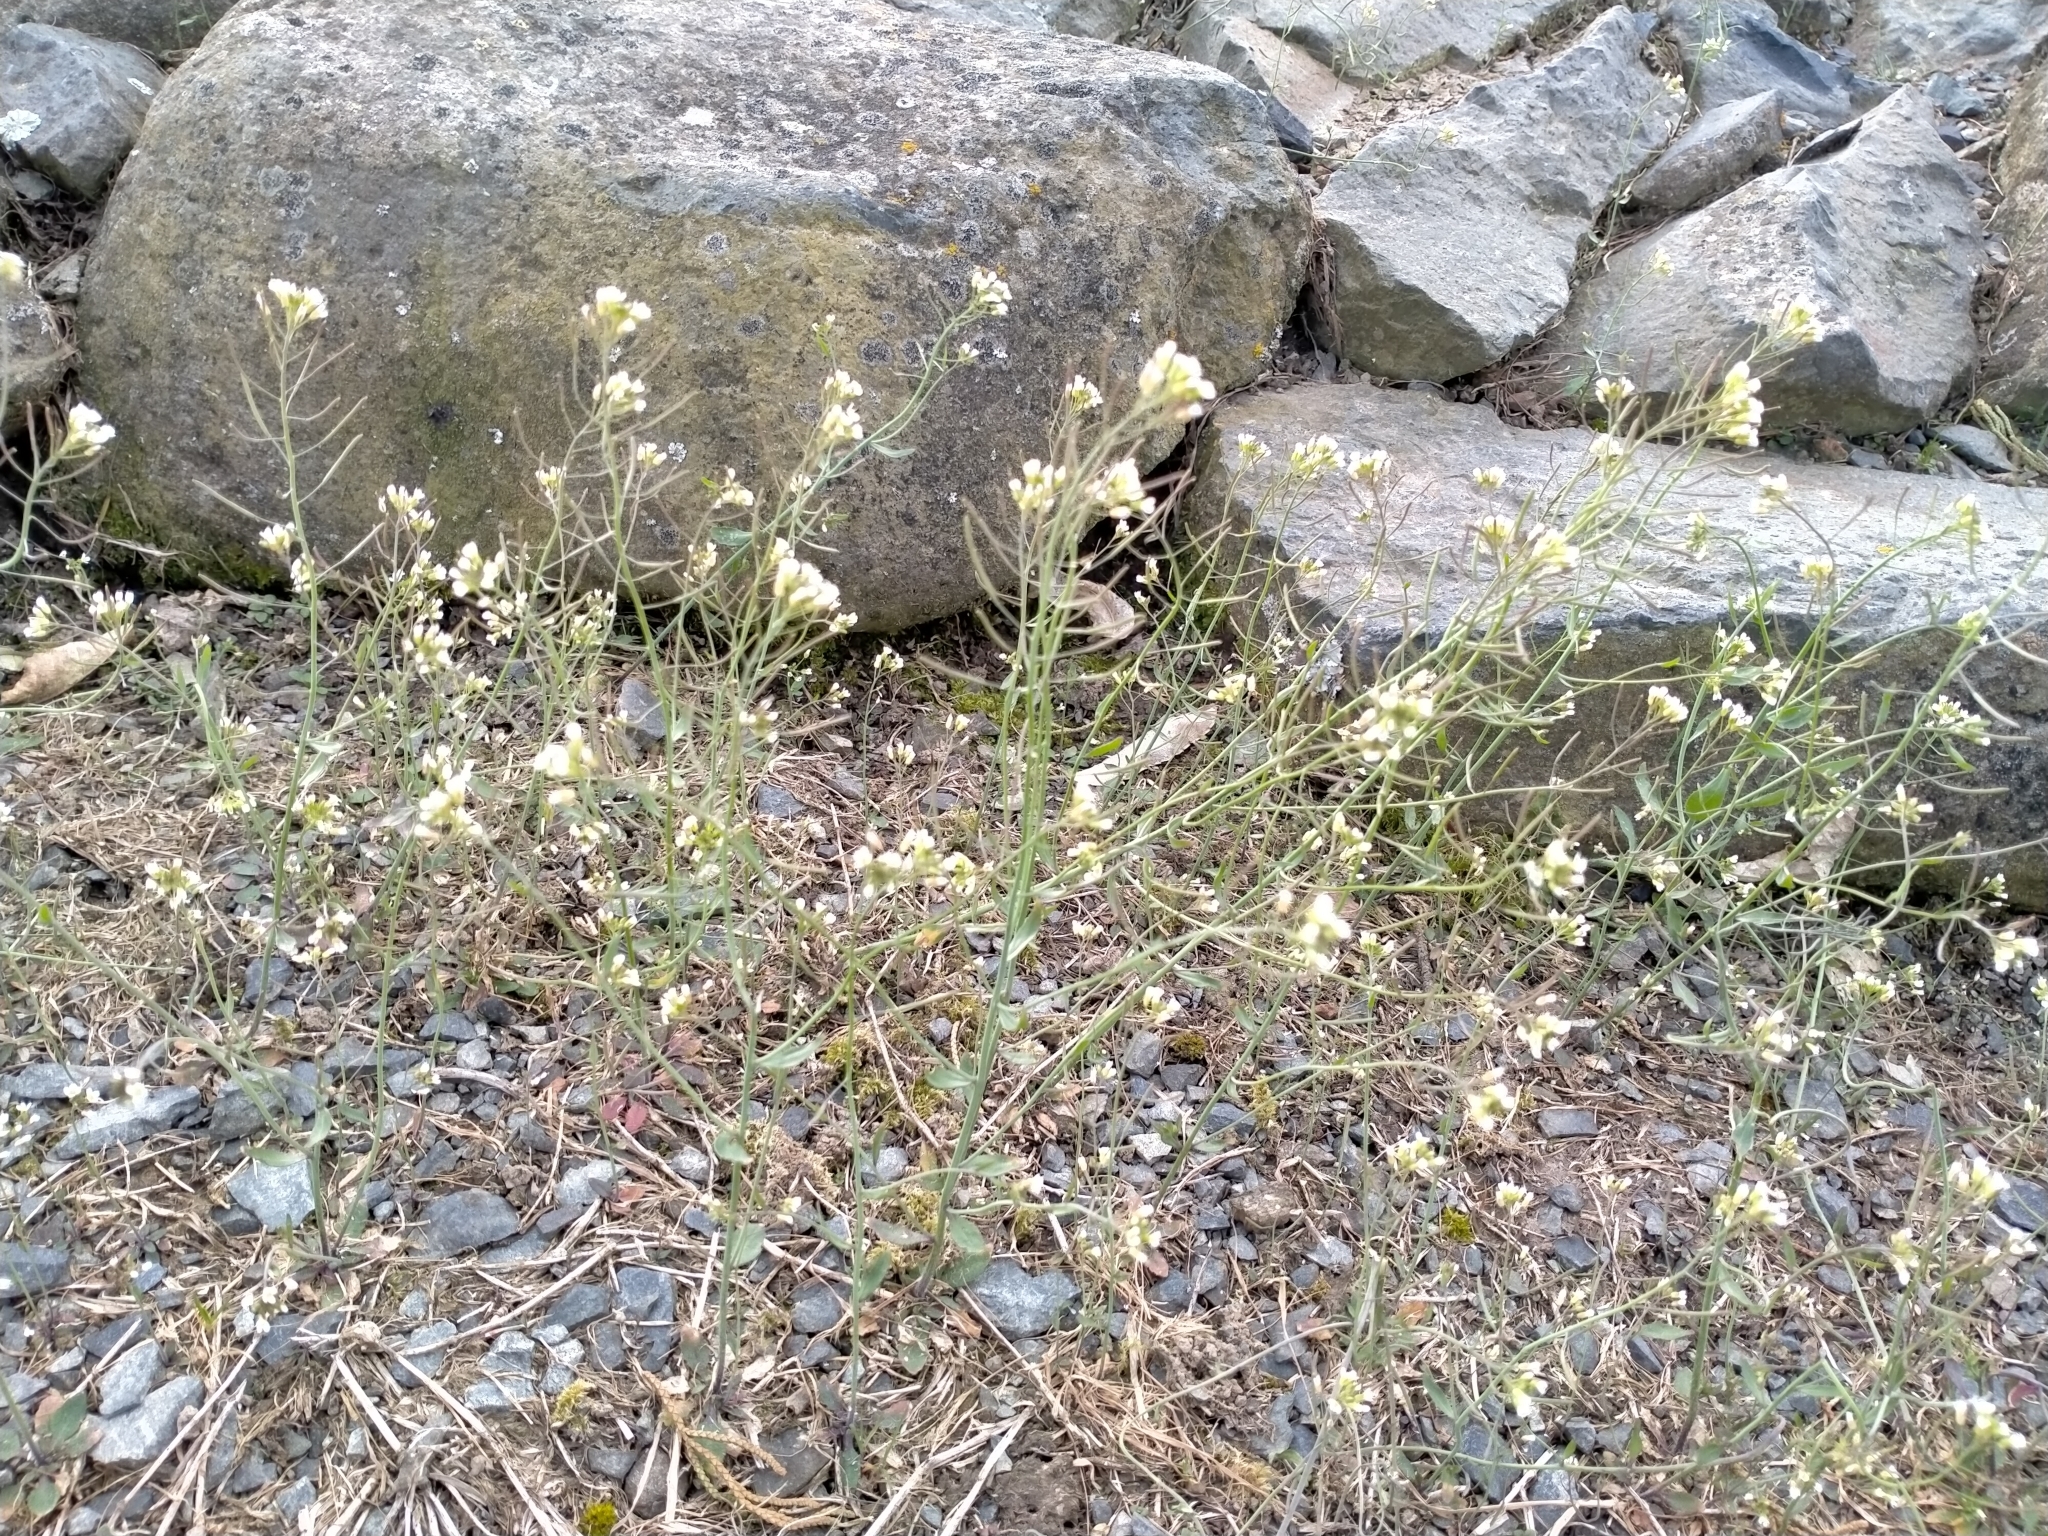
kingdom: Plantae
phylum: Tracheophyta
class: Magnoliopsida
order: Brassicales
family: Brassicaceae
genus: Arabidopsis
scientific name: Arabidopsis thaliana
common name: Thale cress
